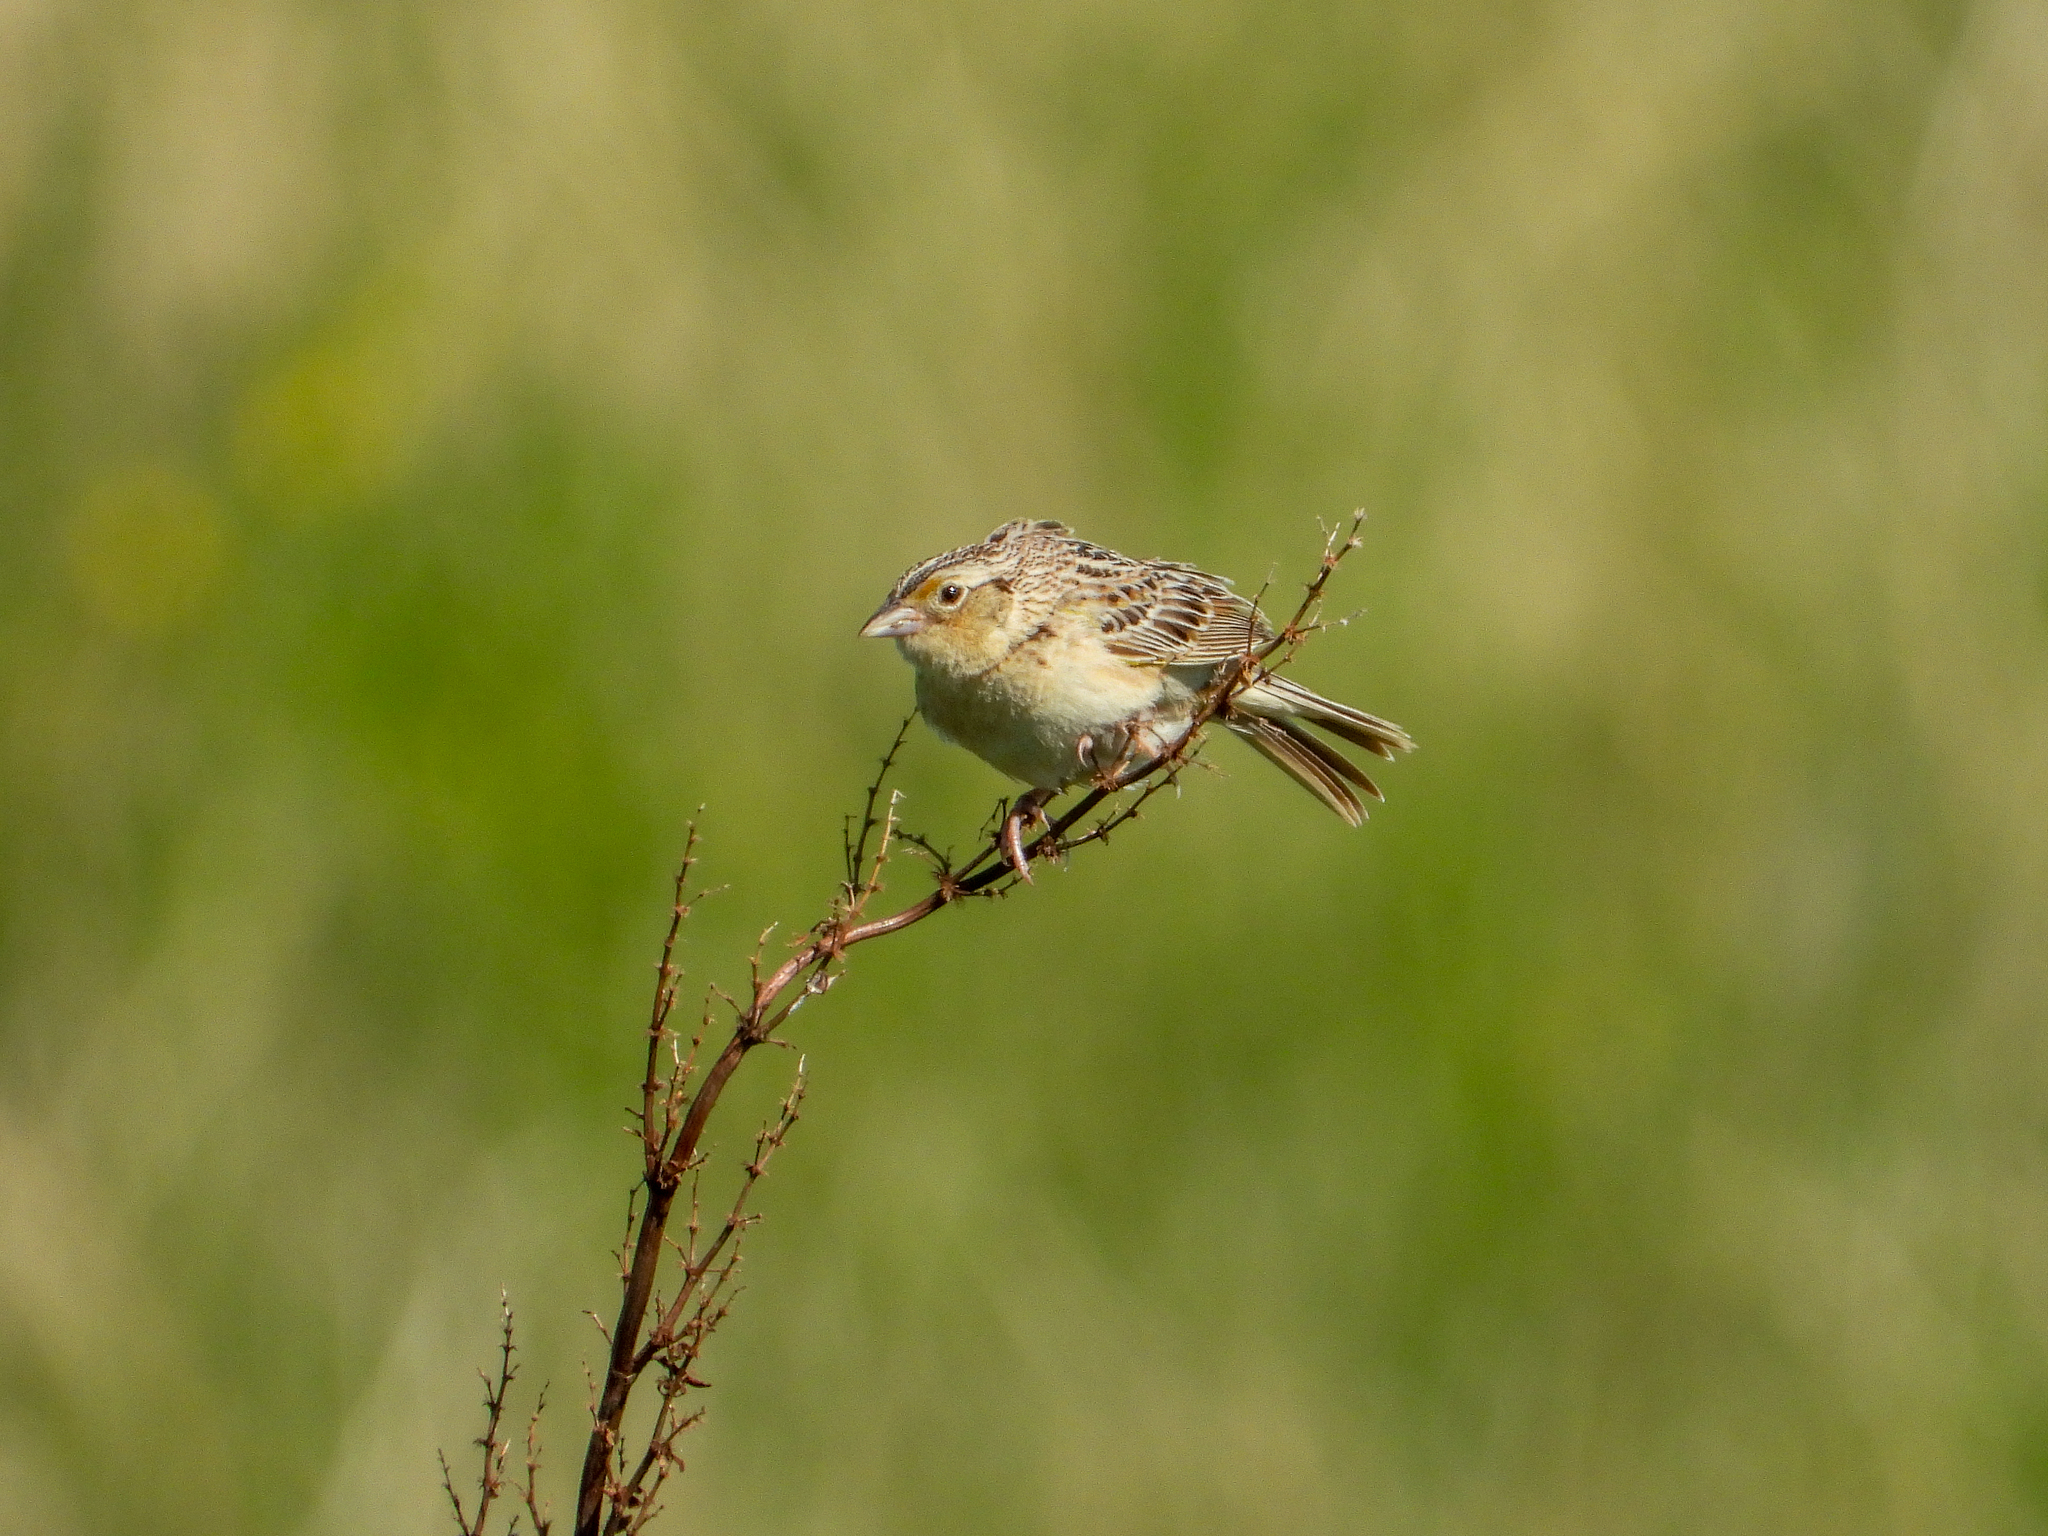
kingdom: Animalia
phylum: Chordata
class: Aves
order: Passeriformes
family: Passerellidae
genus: Ammodramus
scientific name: Ammodramus savannarum
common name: Grasshopper sparrow
